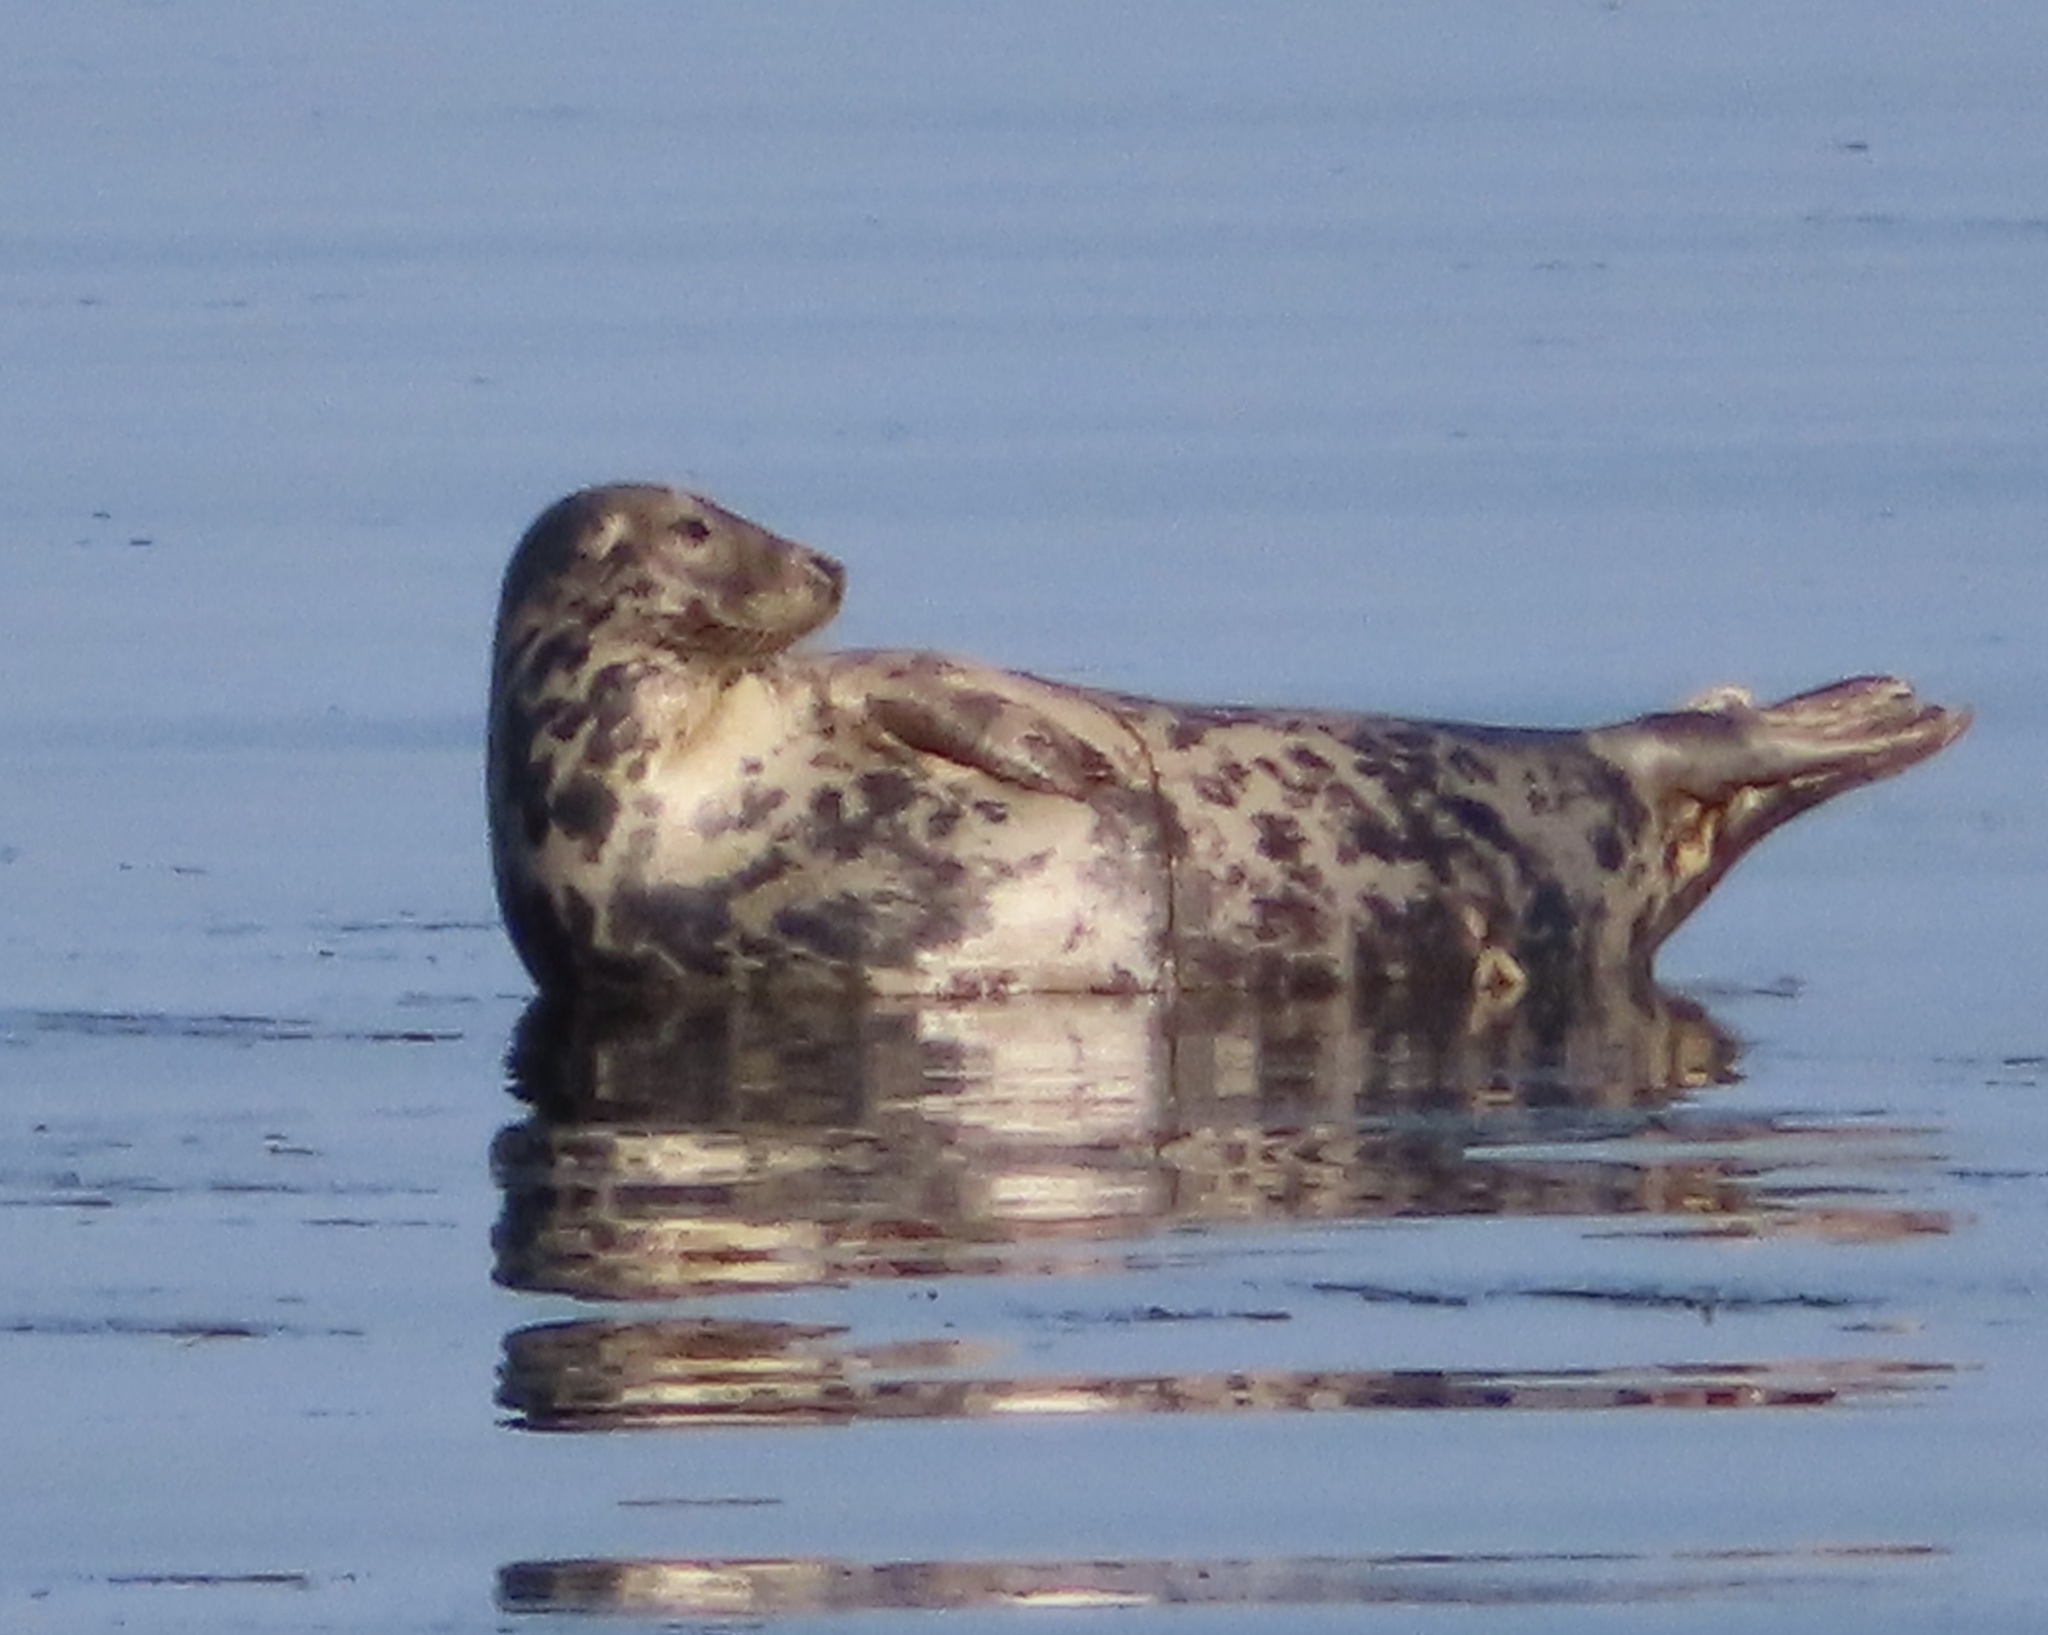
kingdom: Animalia
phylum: Chordata
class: Mammalia
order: Carnivora
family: Phocidae
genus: Halichoerus
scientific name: Halichoerus grypus
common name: Grey seal
